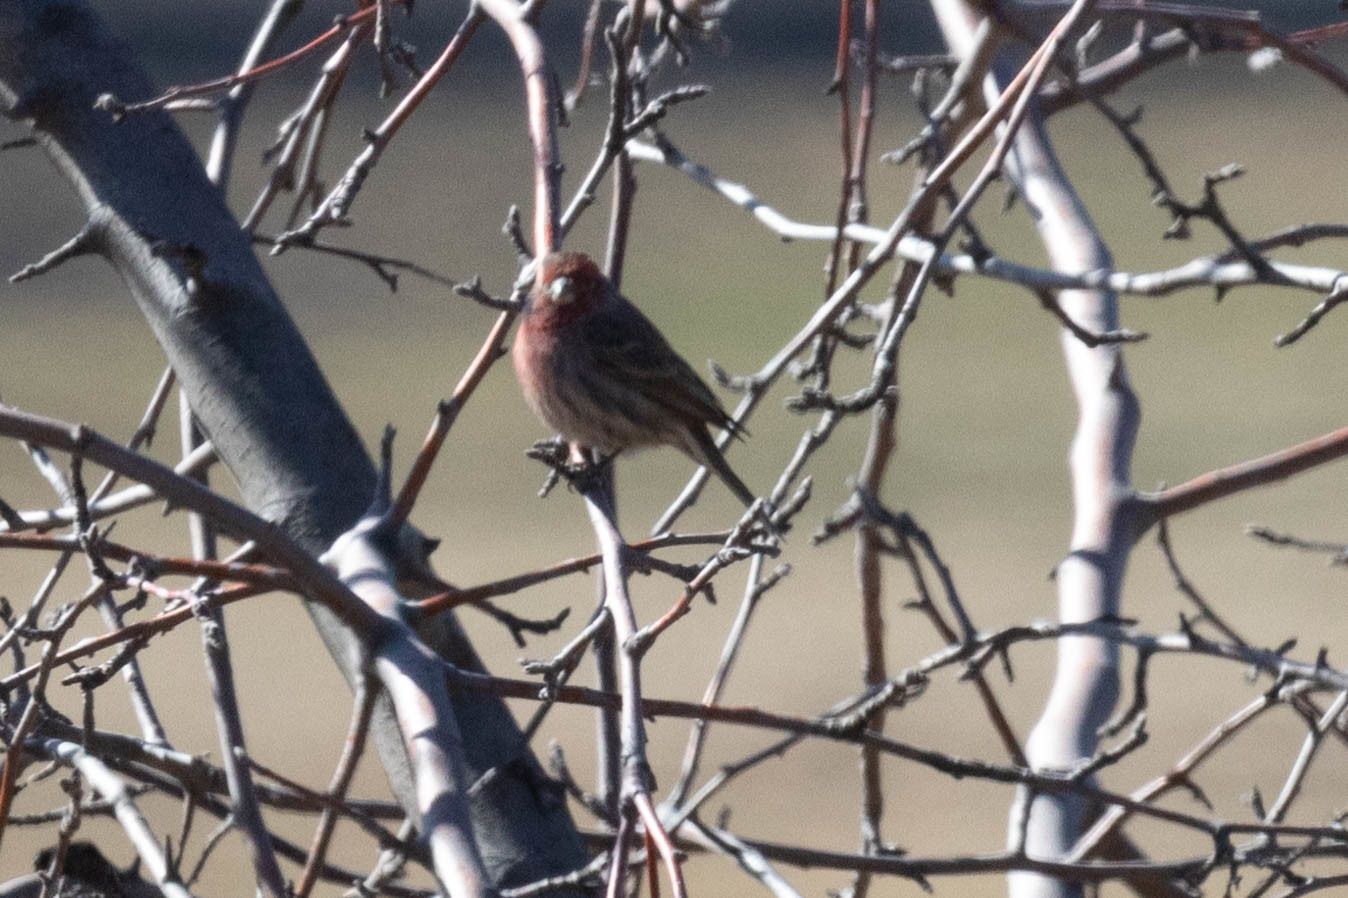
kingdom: Animalia
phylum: Chordata
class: Aves
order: Passeriformes
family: Fringillidae
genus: Haemorhous
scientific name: Haemorhous mexicanus
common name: House finch
